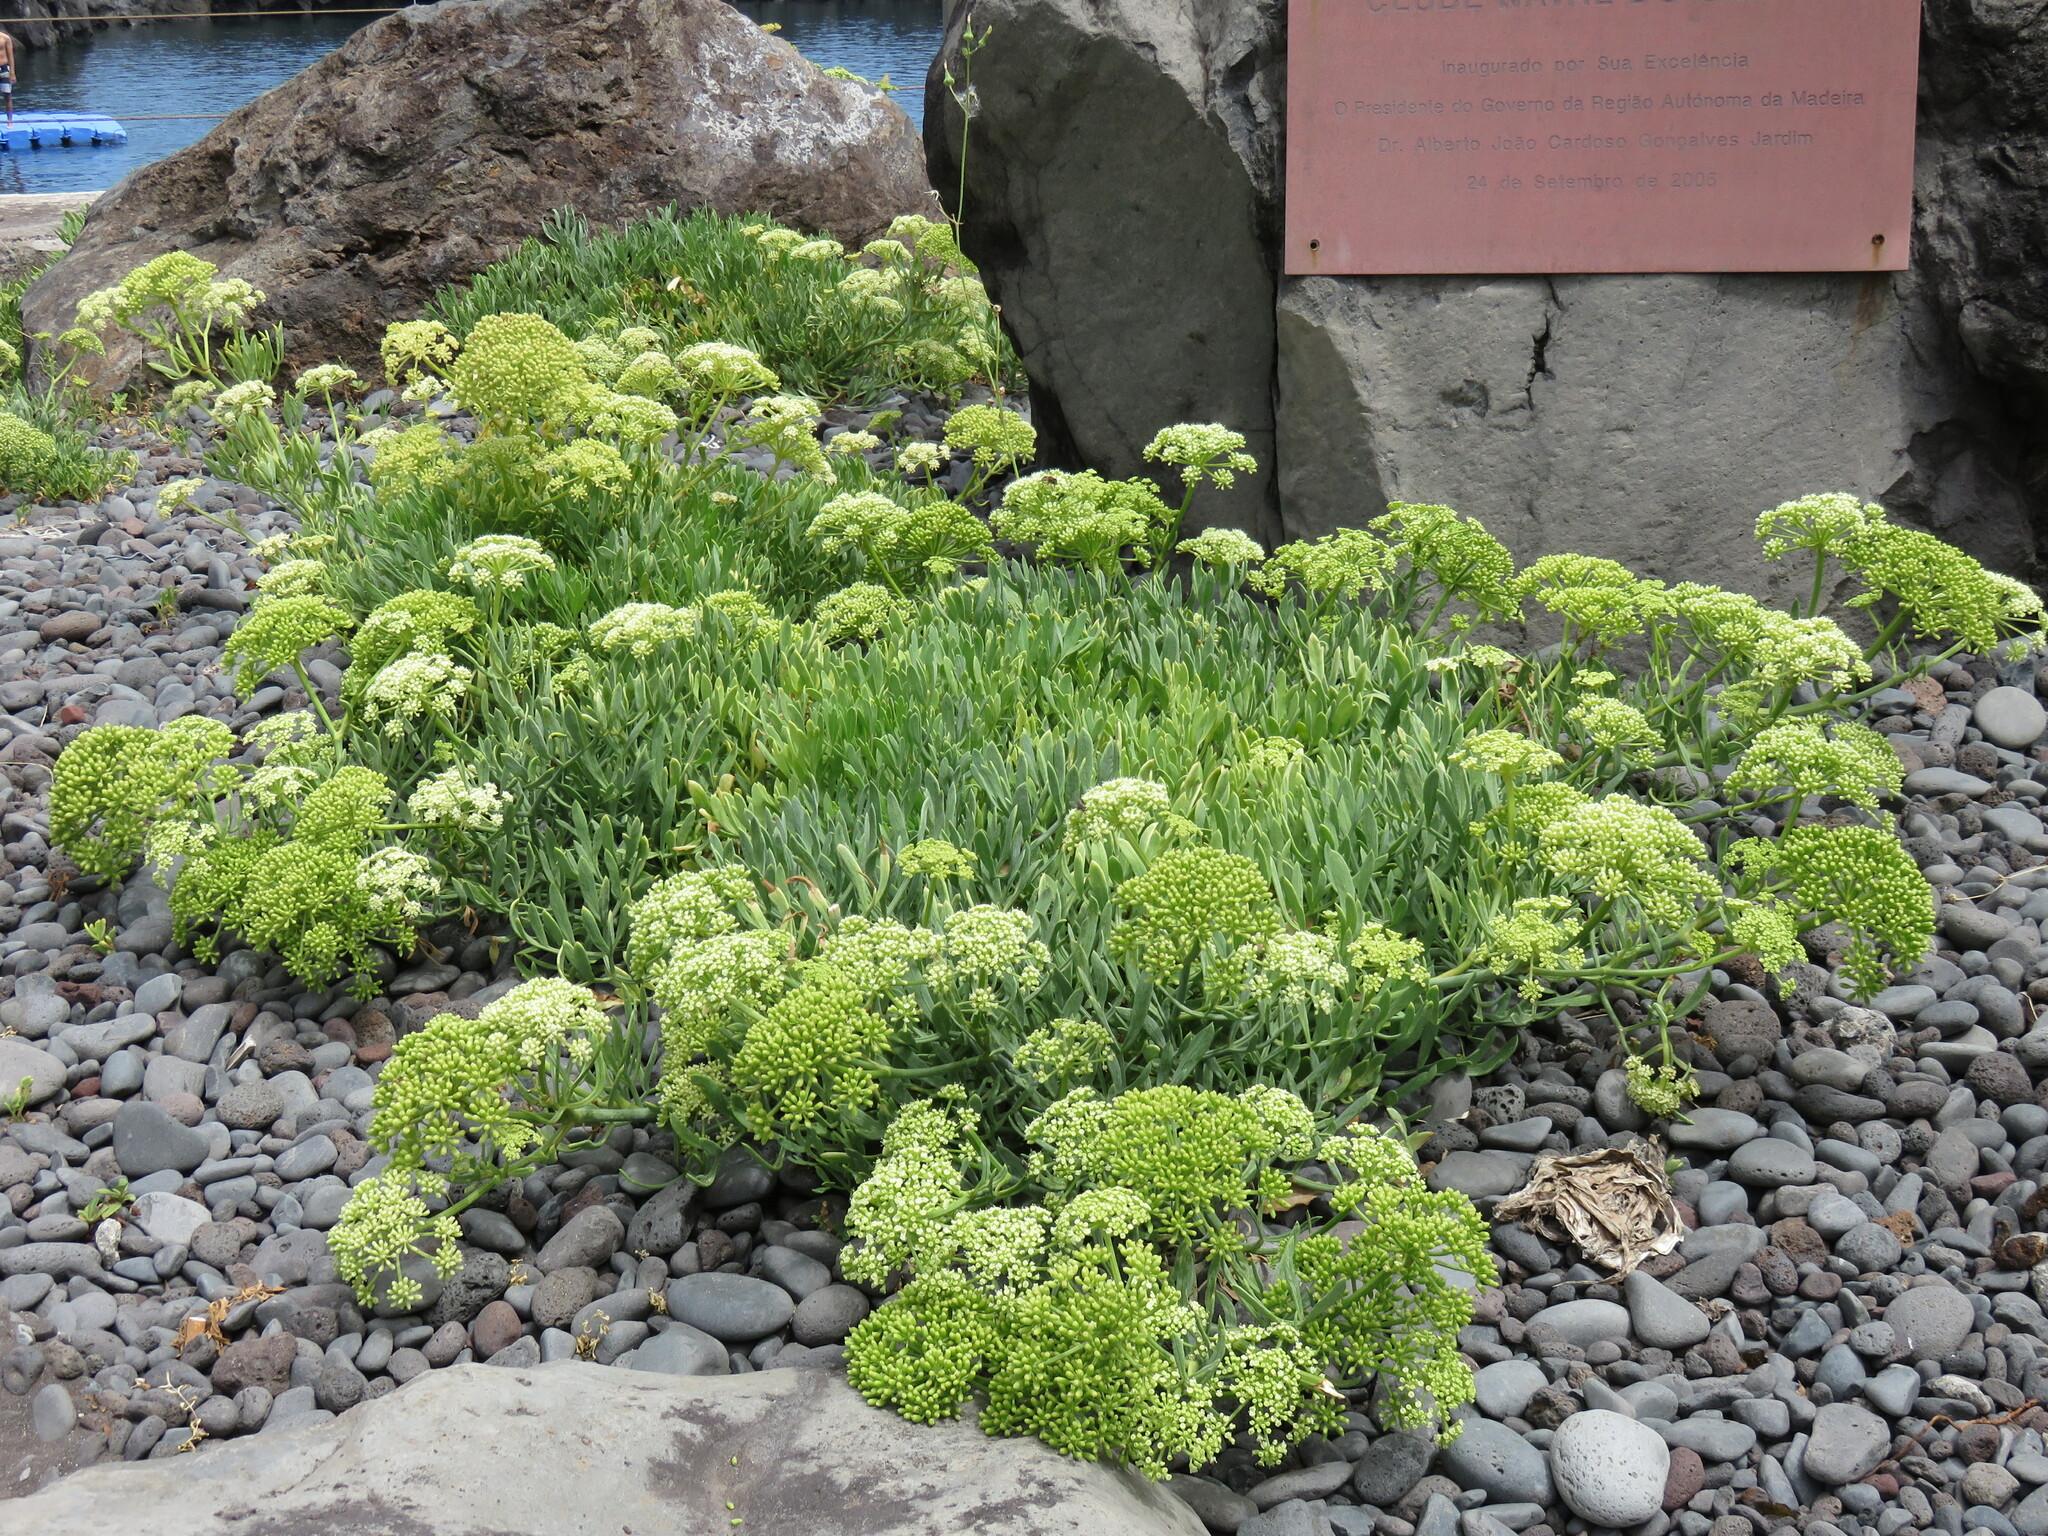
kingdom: Plantae
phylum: Tracheophyta
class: Magnoliopsida
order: Apiales
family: Apiaceae
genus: Crithmum
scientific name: Crithmum maritimum
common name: Rock samphire
